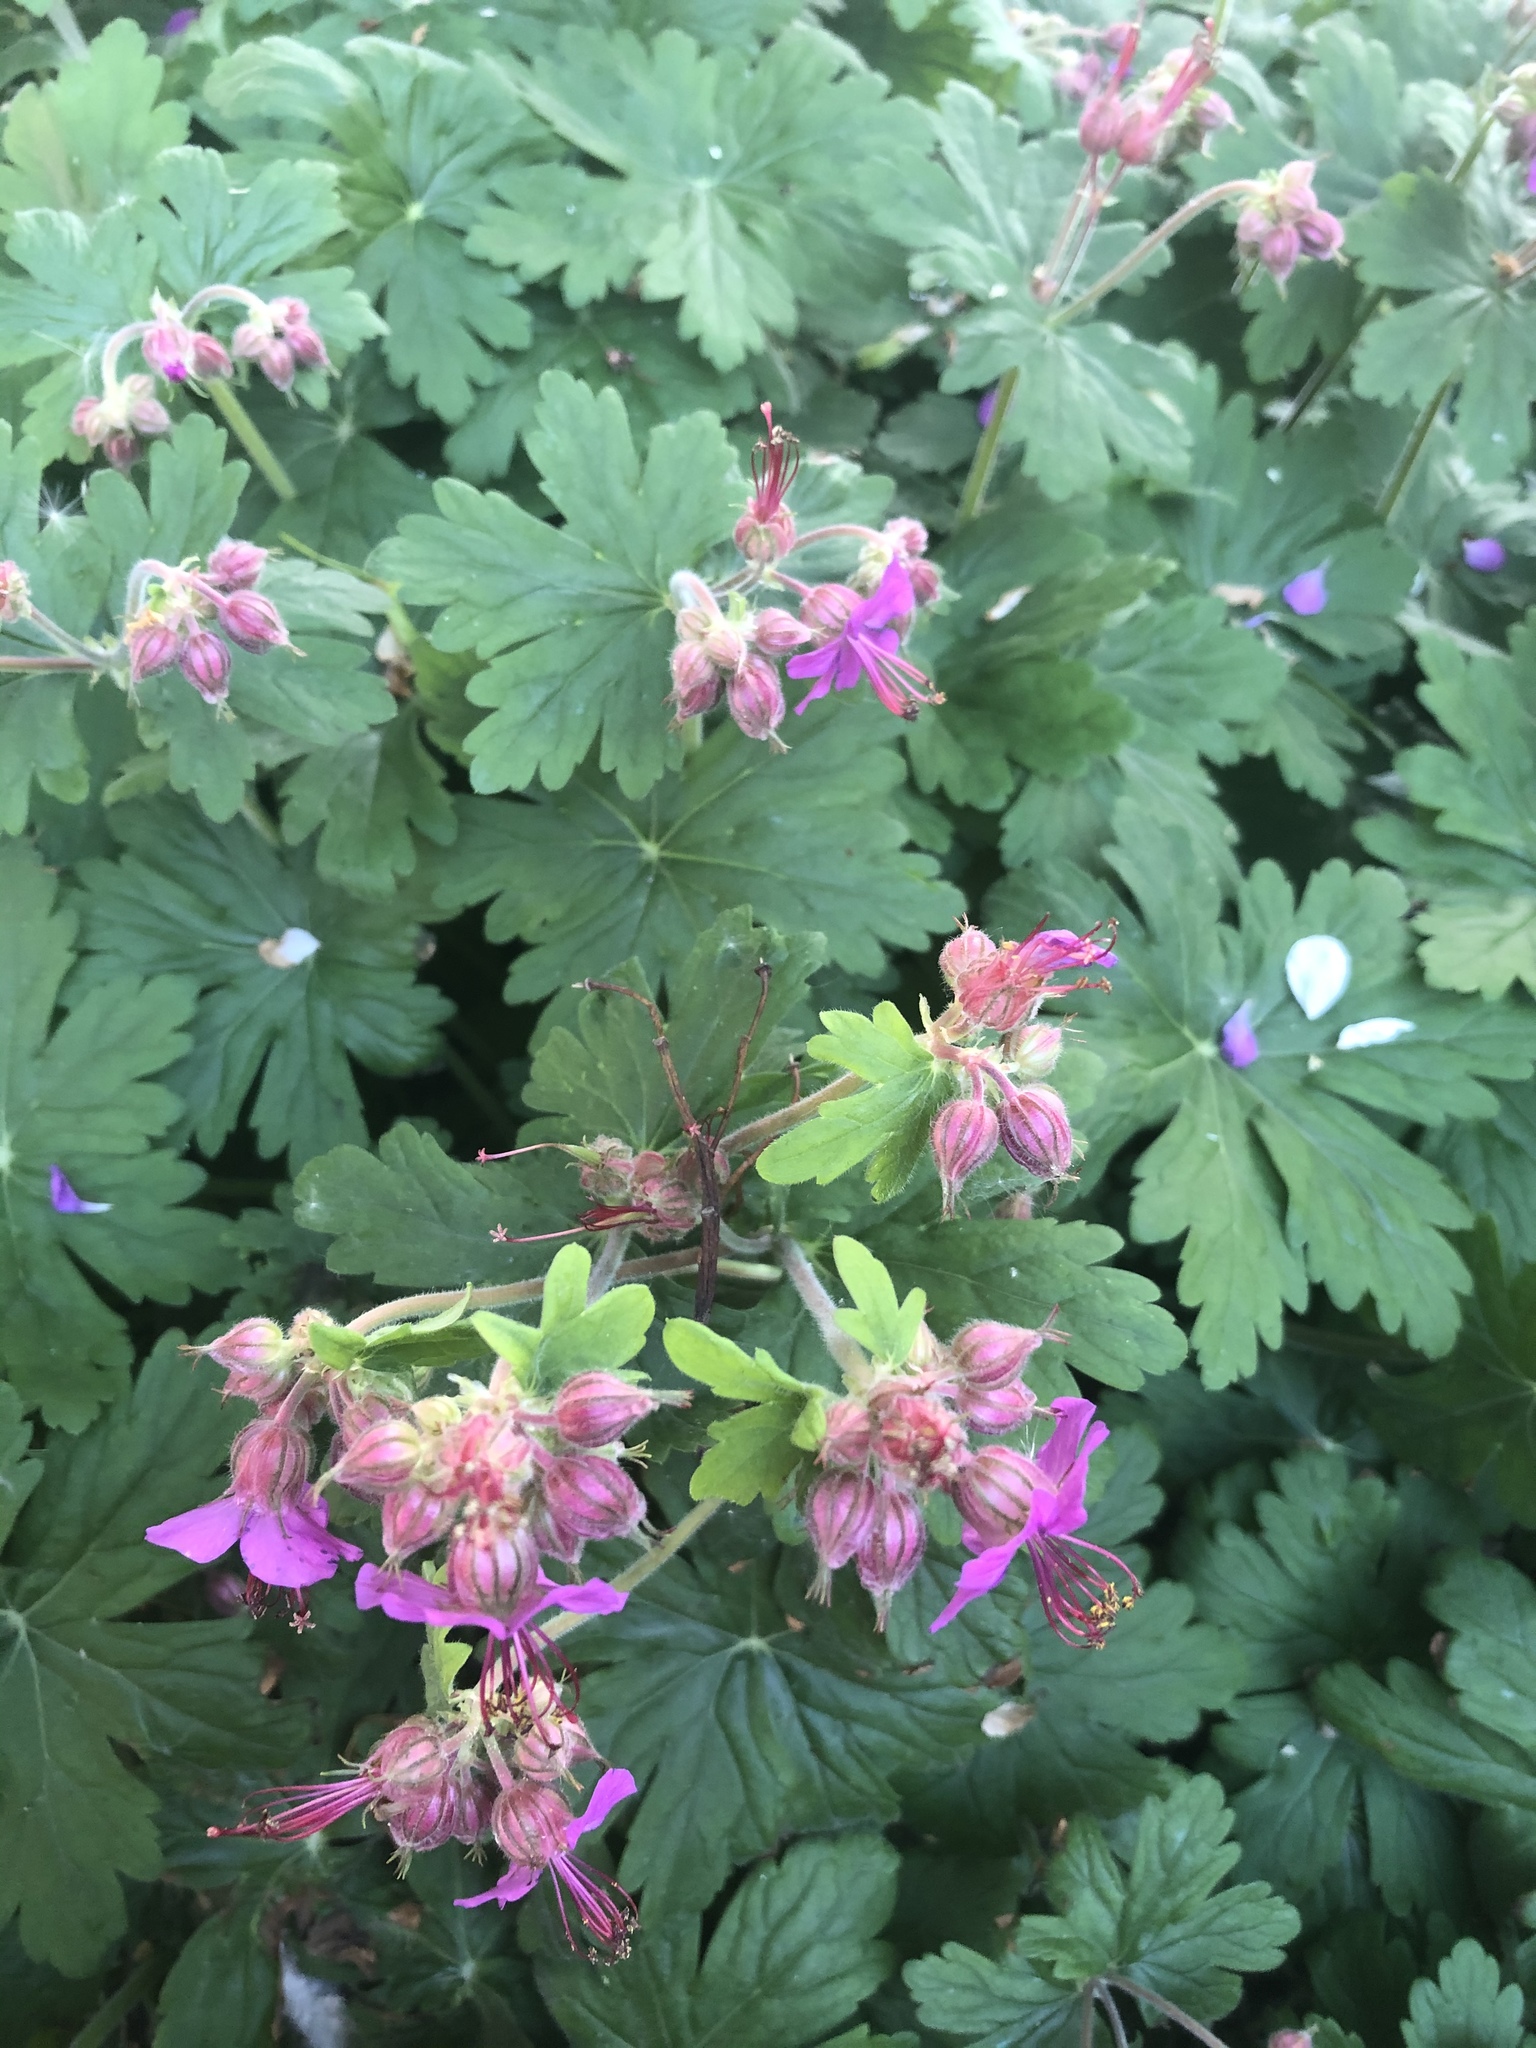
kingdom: Plantae
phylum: Tracheophyta
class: Magnoliopsida
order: Geraniales
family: Geraniaceae
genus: Geranium
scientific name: Geranium macrorrhizum
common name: Rock crane's-bill
